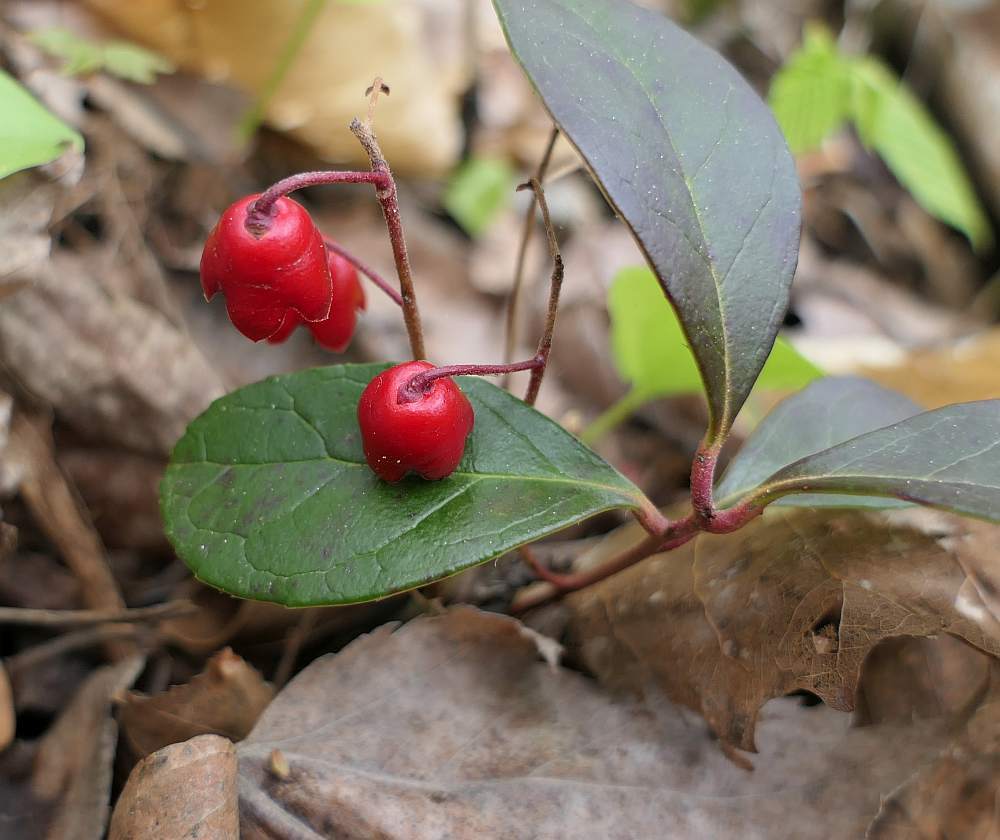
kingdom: Plantae
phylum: Tracheophyta
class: Magnoliopsida
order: Ericales
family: Ericaceae
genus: Gaultheria
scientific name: Gaultheria procumbens
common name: Checkerberry
